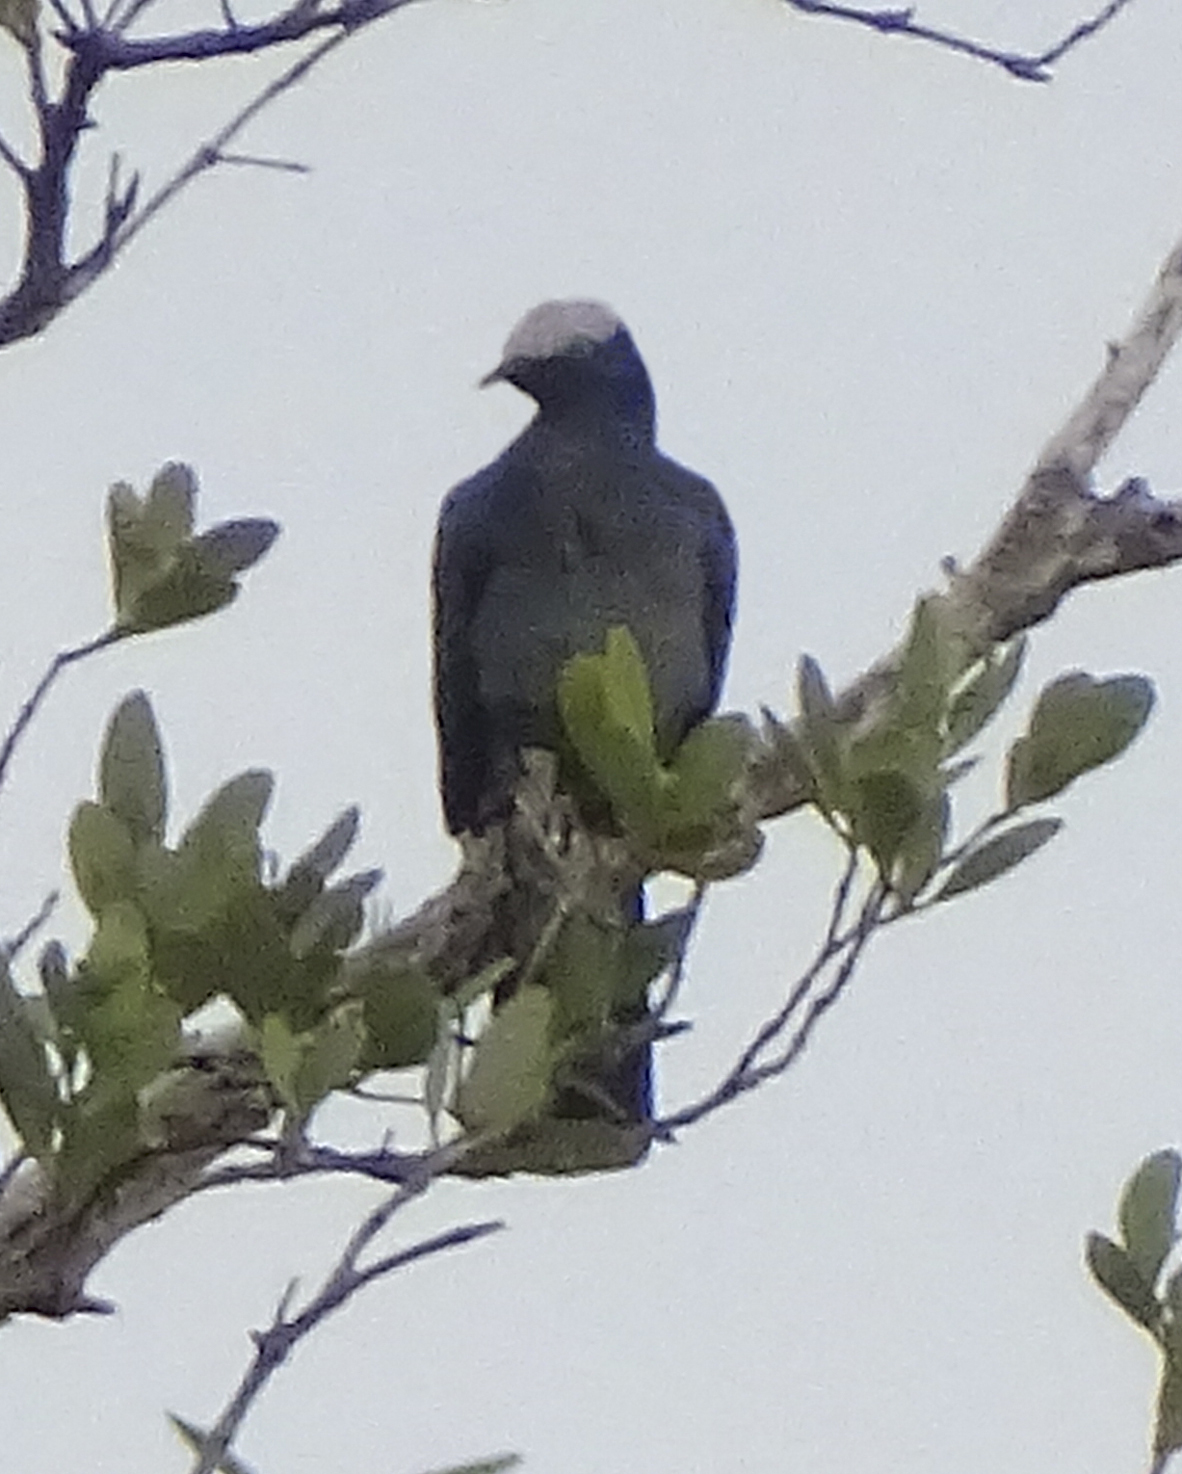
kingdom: Animalia
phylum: Chordata
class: Aves
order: Columbiformes
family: Columbidae
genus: Patagioenas
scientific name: Patagioenas leucocephala
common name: White-crowned pigeon
